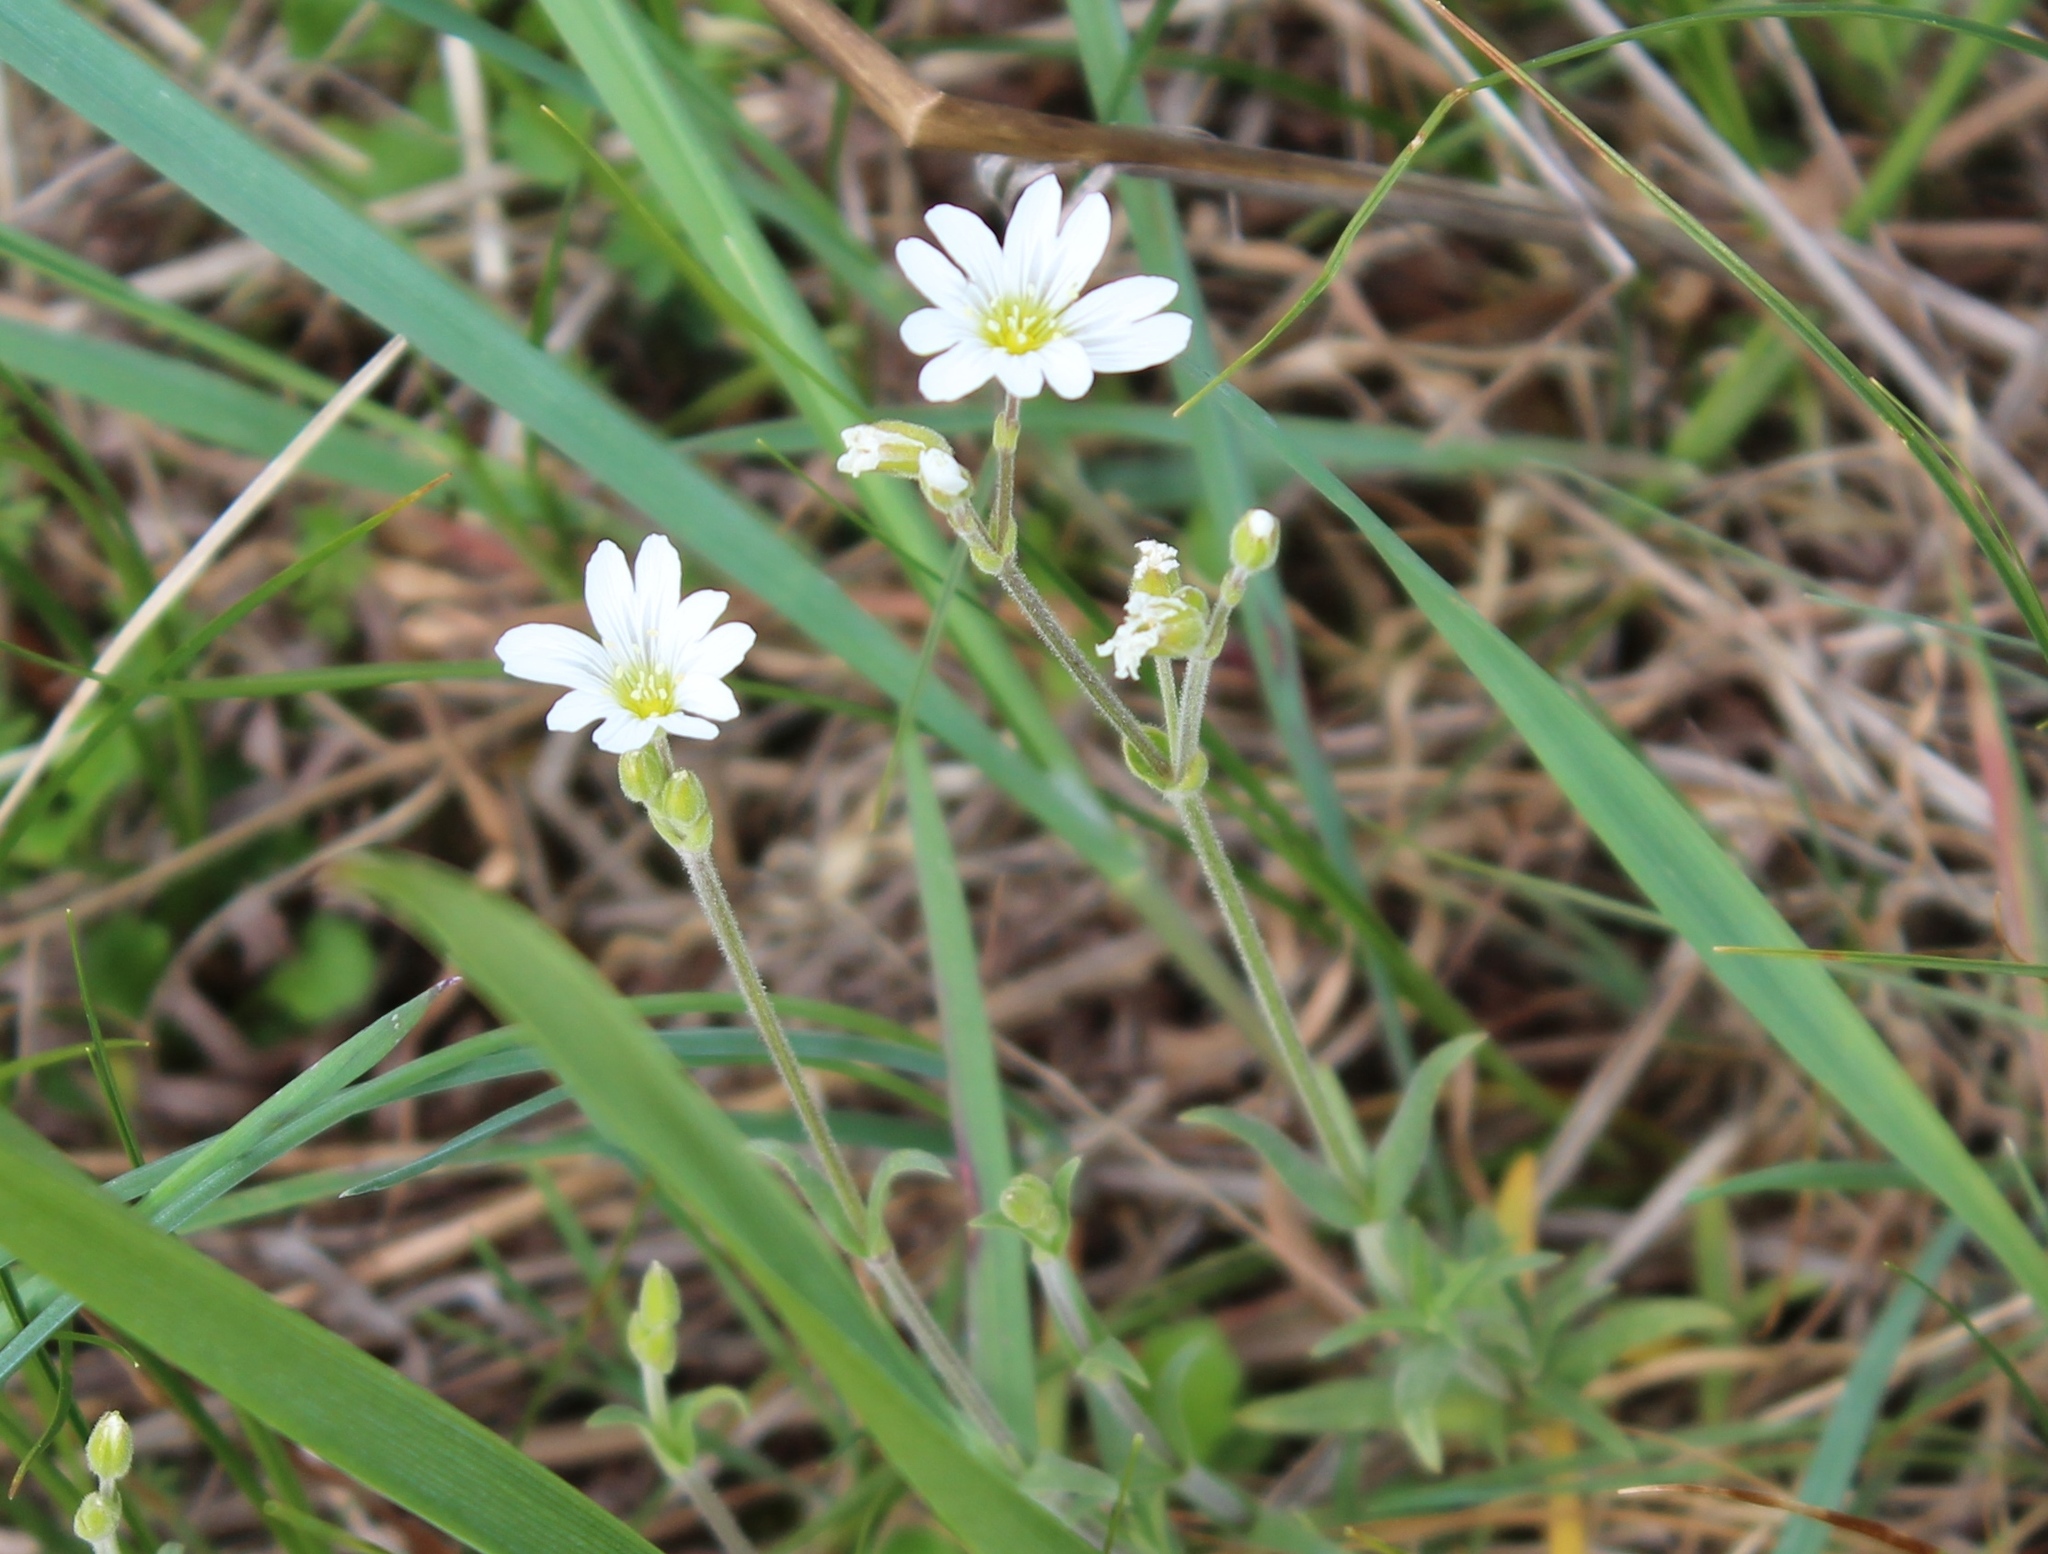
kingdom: Plantae
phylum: Tracheophyta
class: Magnoliopsida
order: Caryophyllales
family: Caryophyllaceae
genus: Cerastium
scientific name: Cerastium arvense
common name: Field mouse-ear
